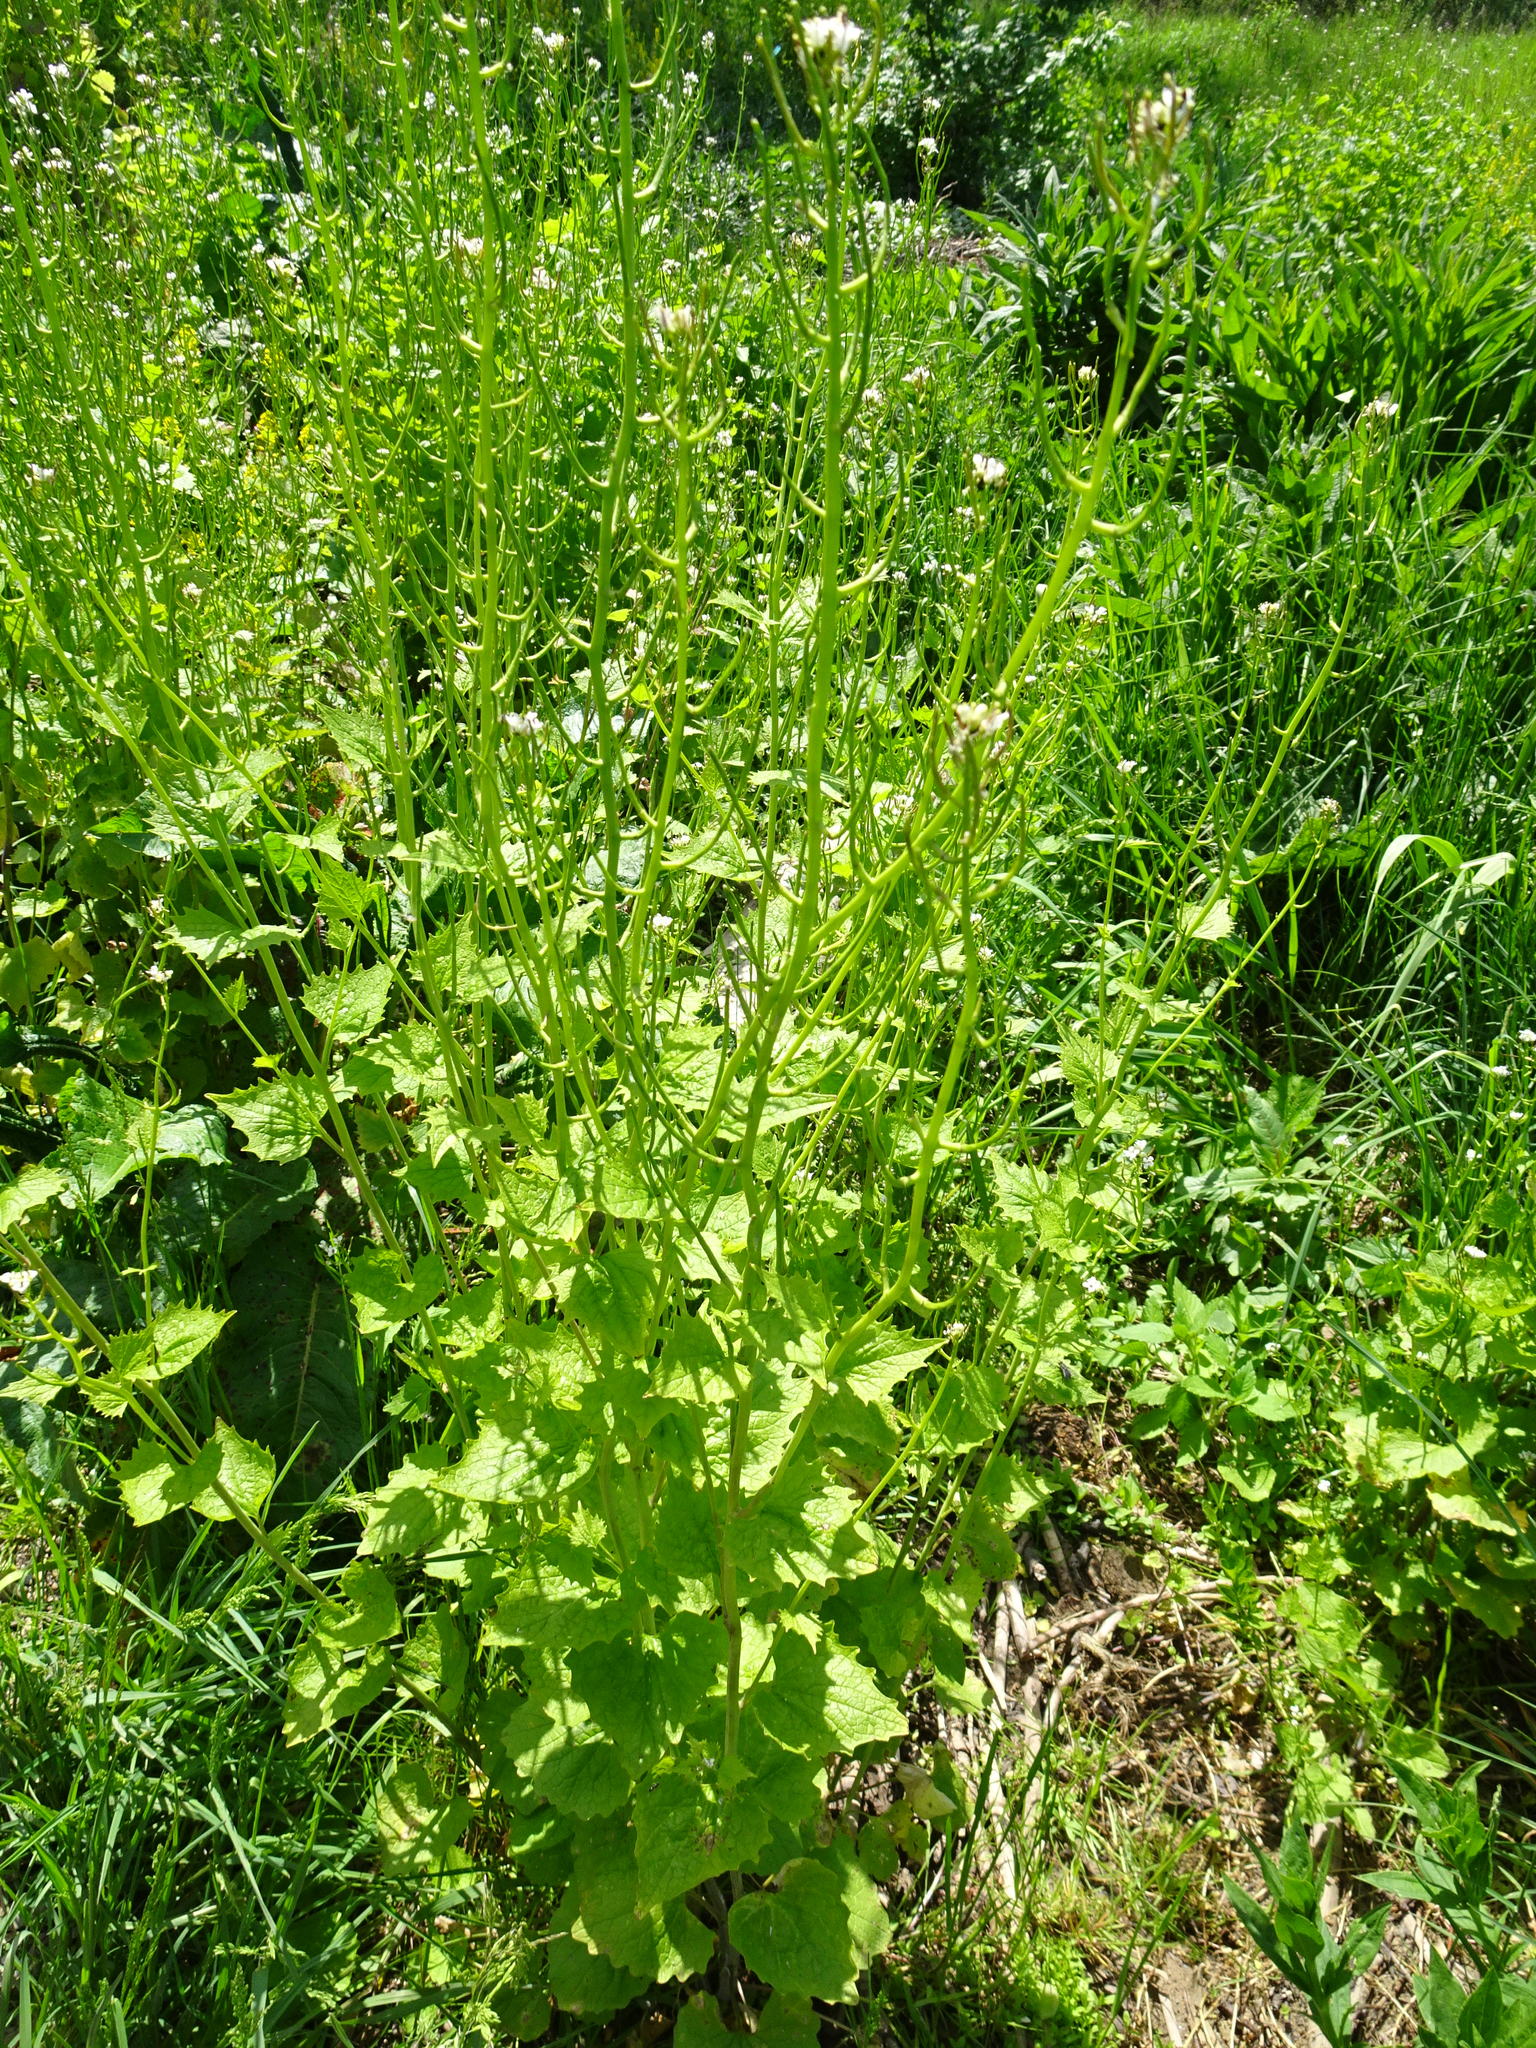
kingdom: Plantae
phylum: Tracheophyta
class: Magnoliopsida
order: Brassicales
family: Brassicaceae
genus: Alliaria
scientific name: Alliaria petiolata
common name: Garlic mustard
